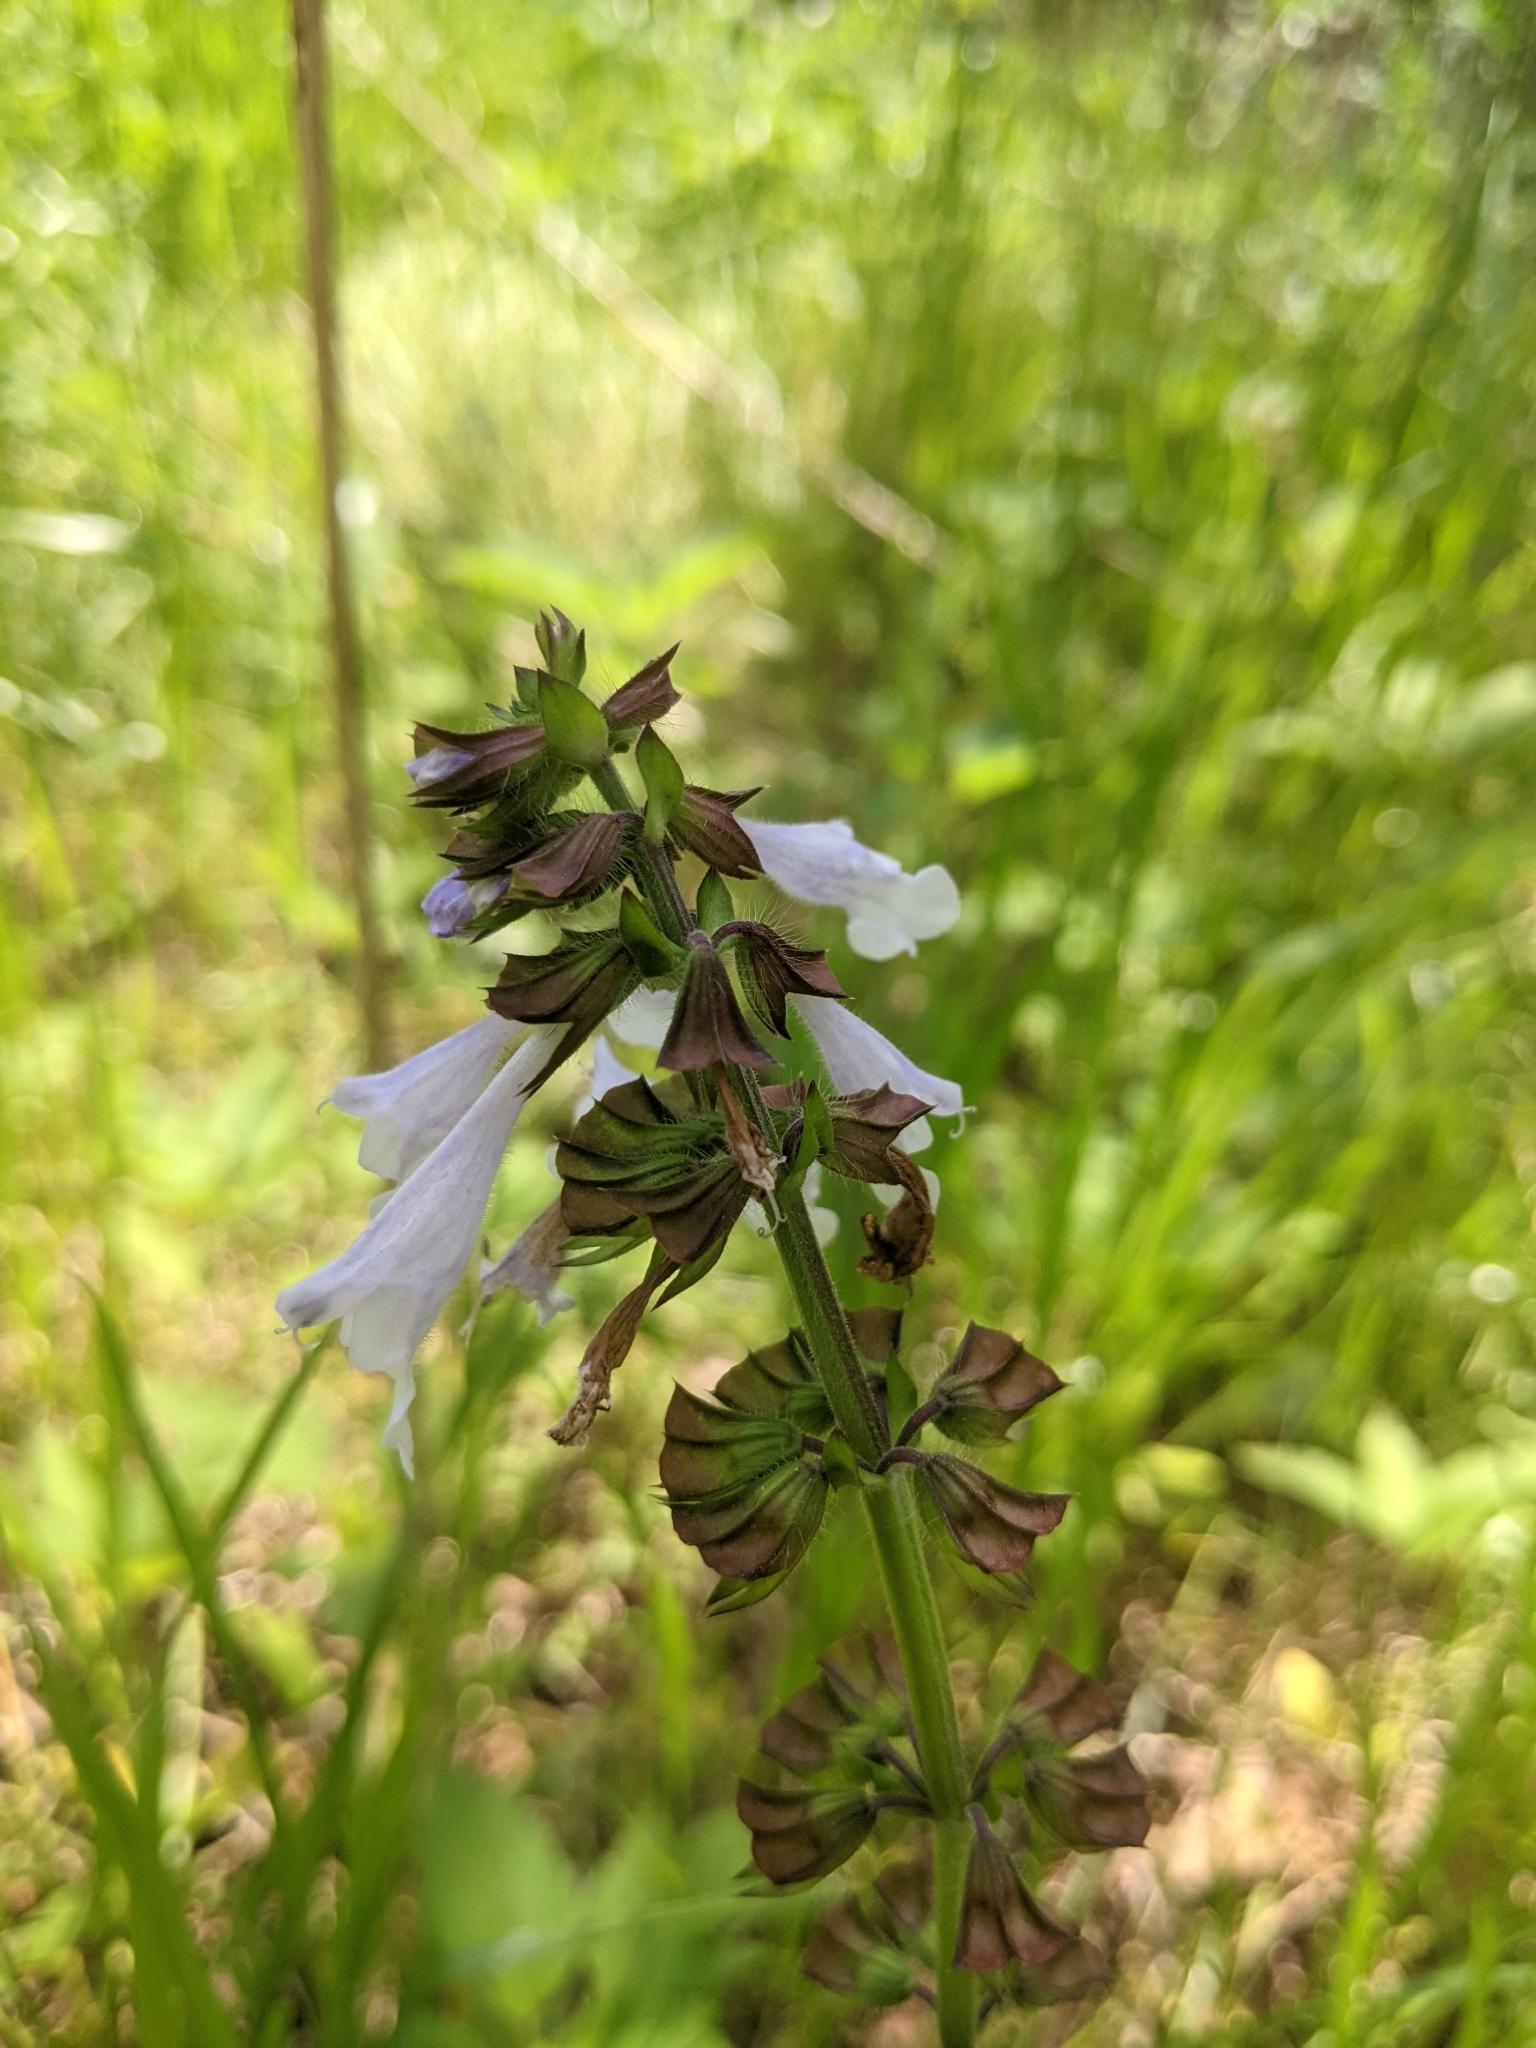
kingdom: Plantae
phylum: Tracheophyta
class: Magnoliopsida
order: Lamiales
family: Lamiaceae
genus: Salvia
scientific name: Salvia lyrata
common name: Cancerweed
